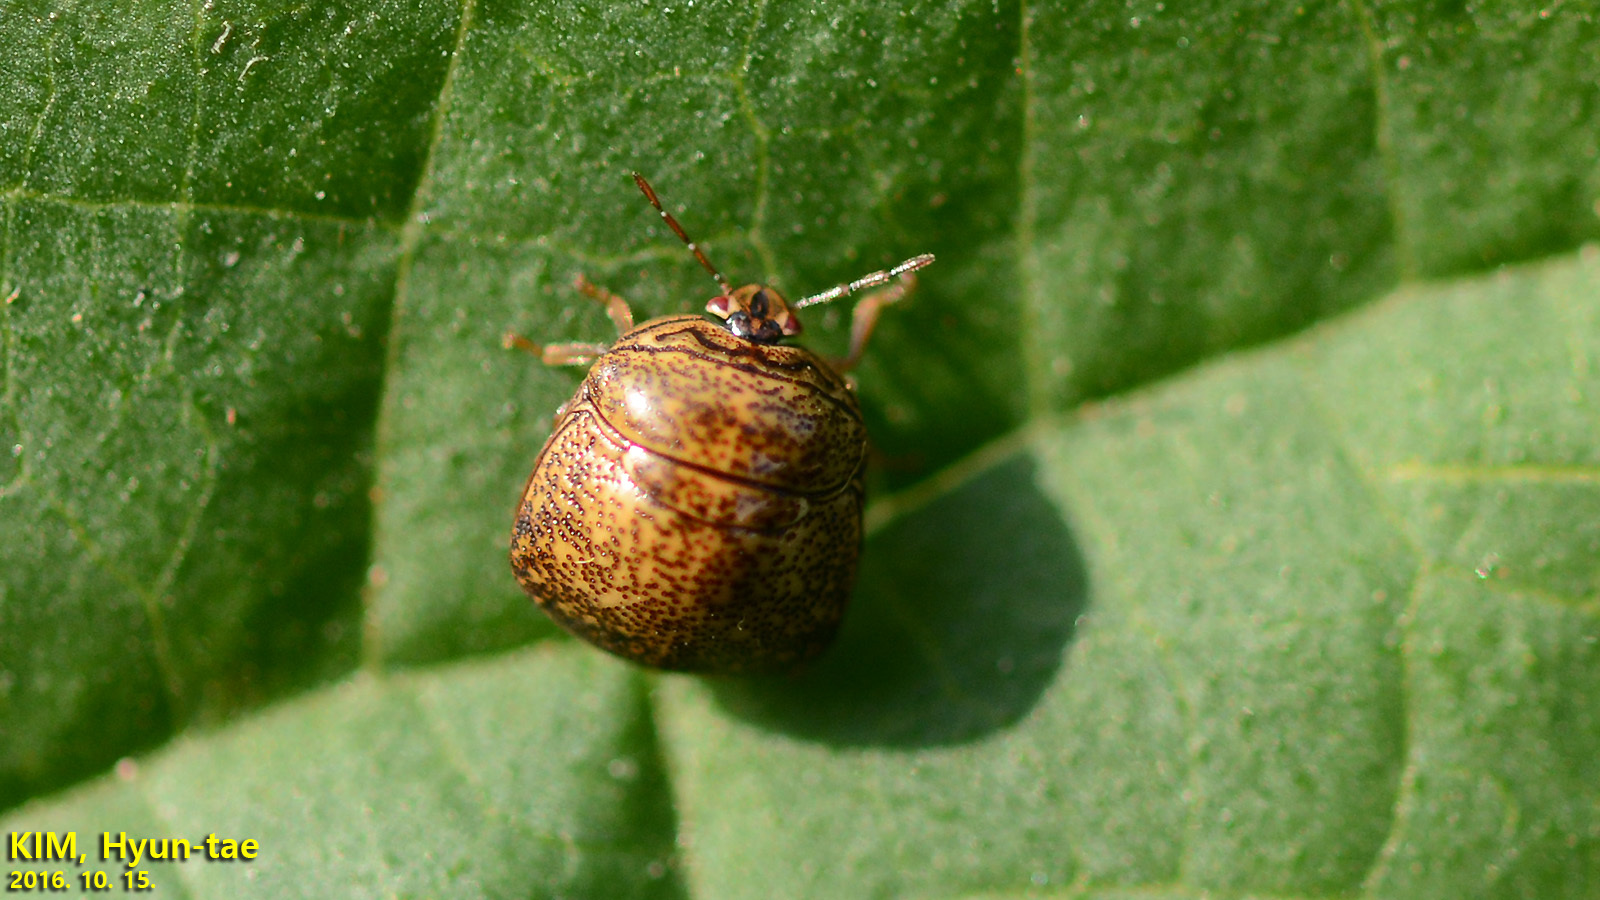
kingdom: Animalia
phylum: Arthropoda
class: Insecta
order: Hemiptera
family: Plataspidae
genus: Megacopta
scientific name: Megacopta punctatissima
